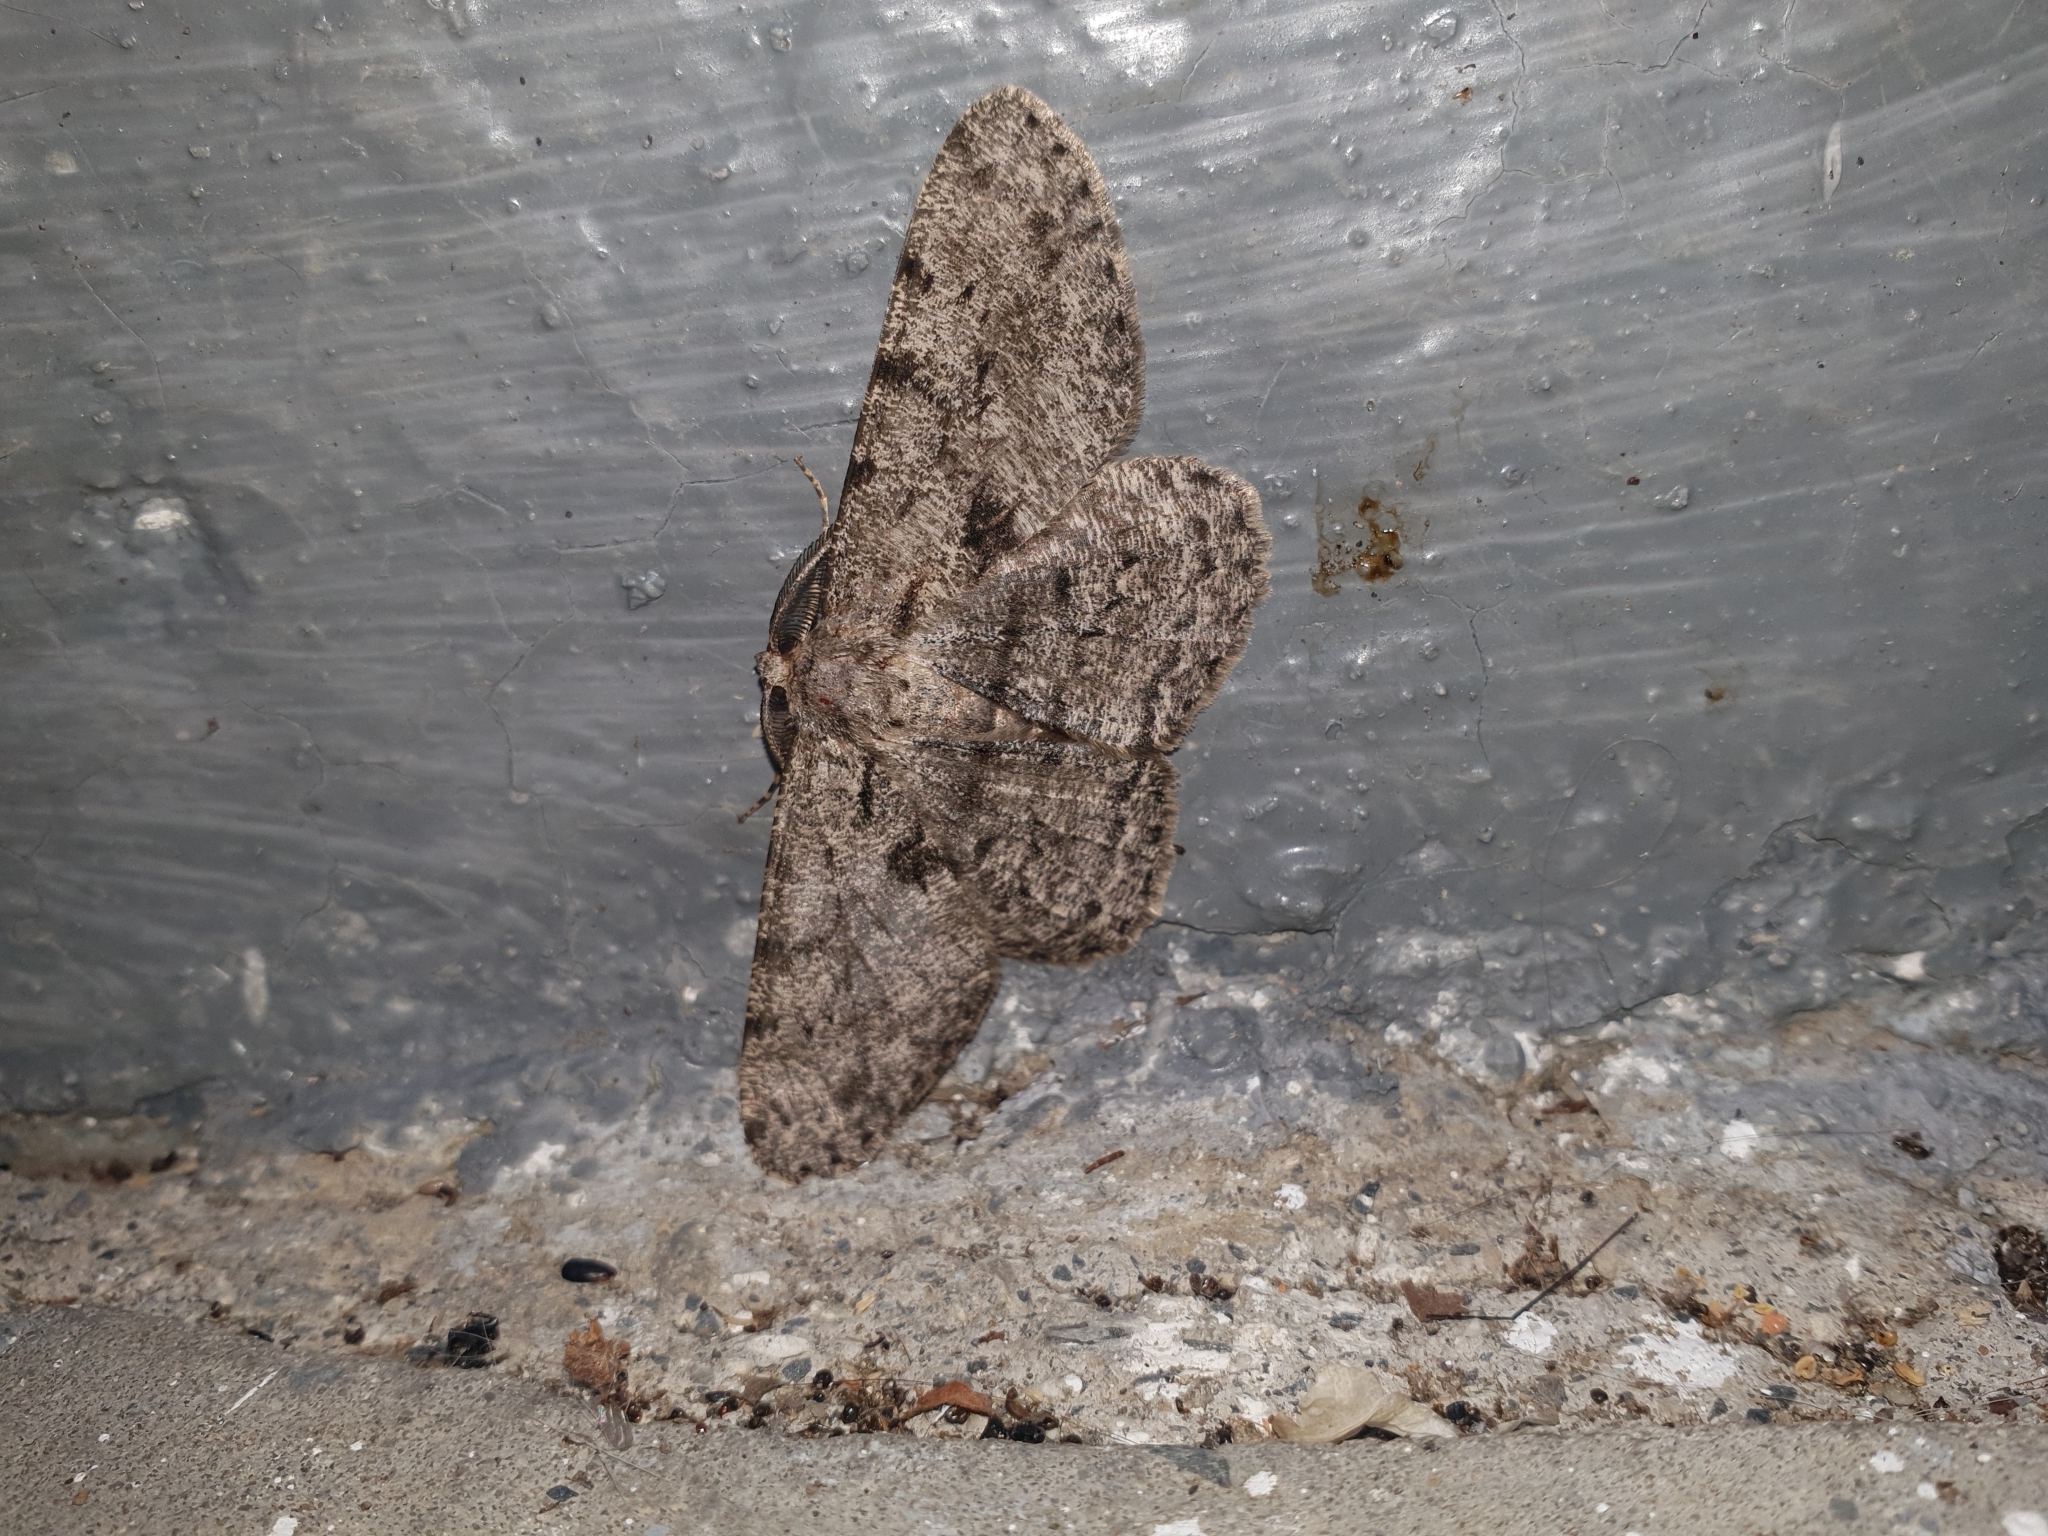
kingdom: Animalia
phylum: Arthropoda
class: Insecta
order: Lepidoptera
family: Geometridae
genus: Hypomecis
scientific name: Hypomecis roboraria
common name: Great oak beauty
